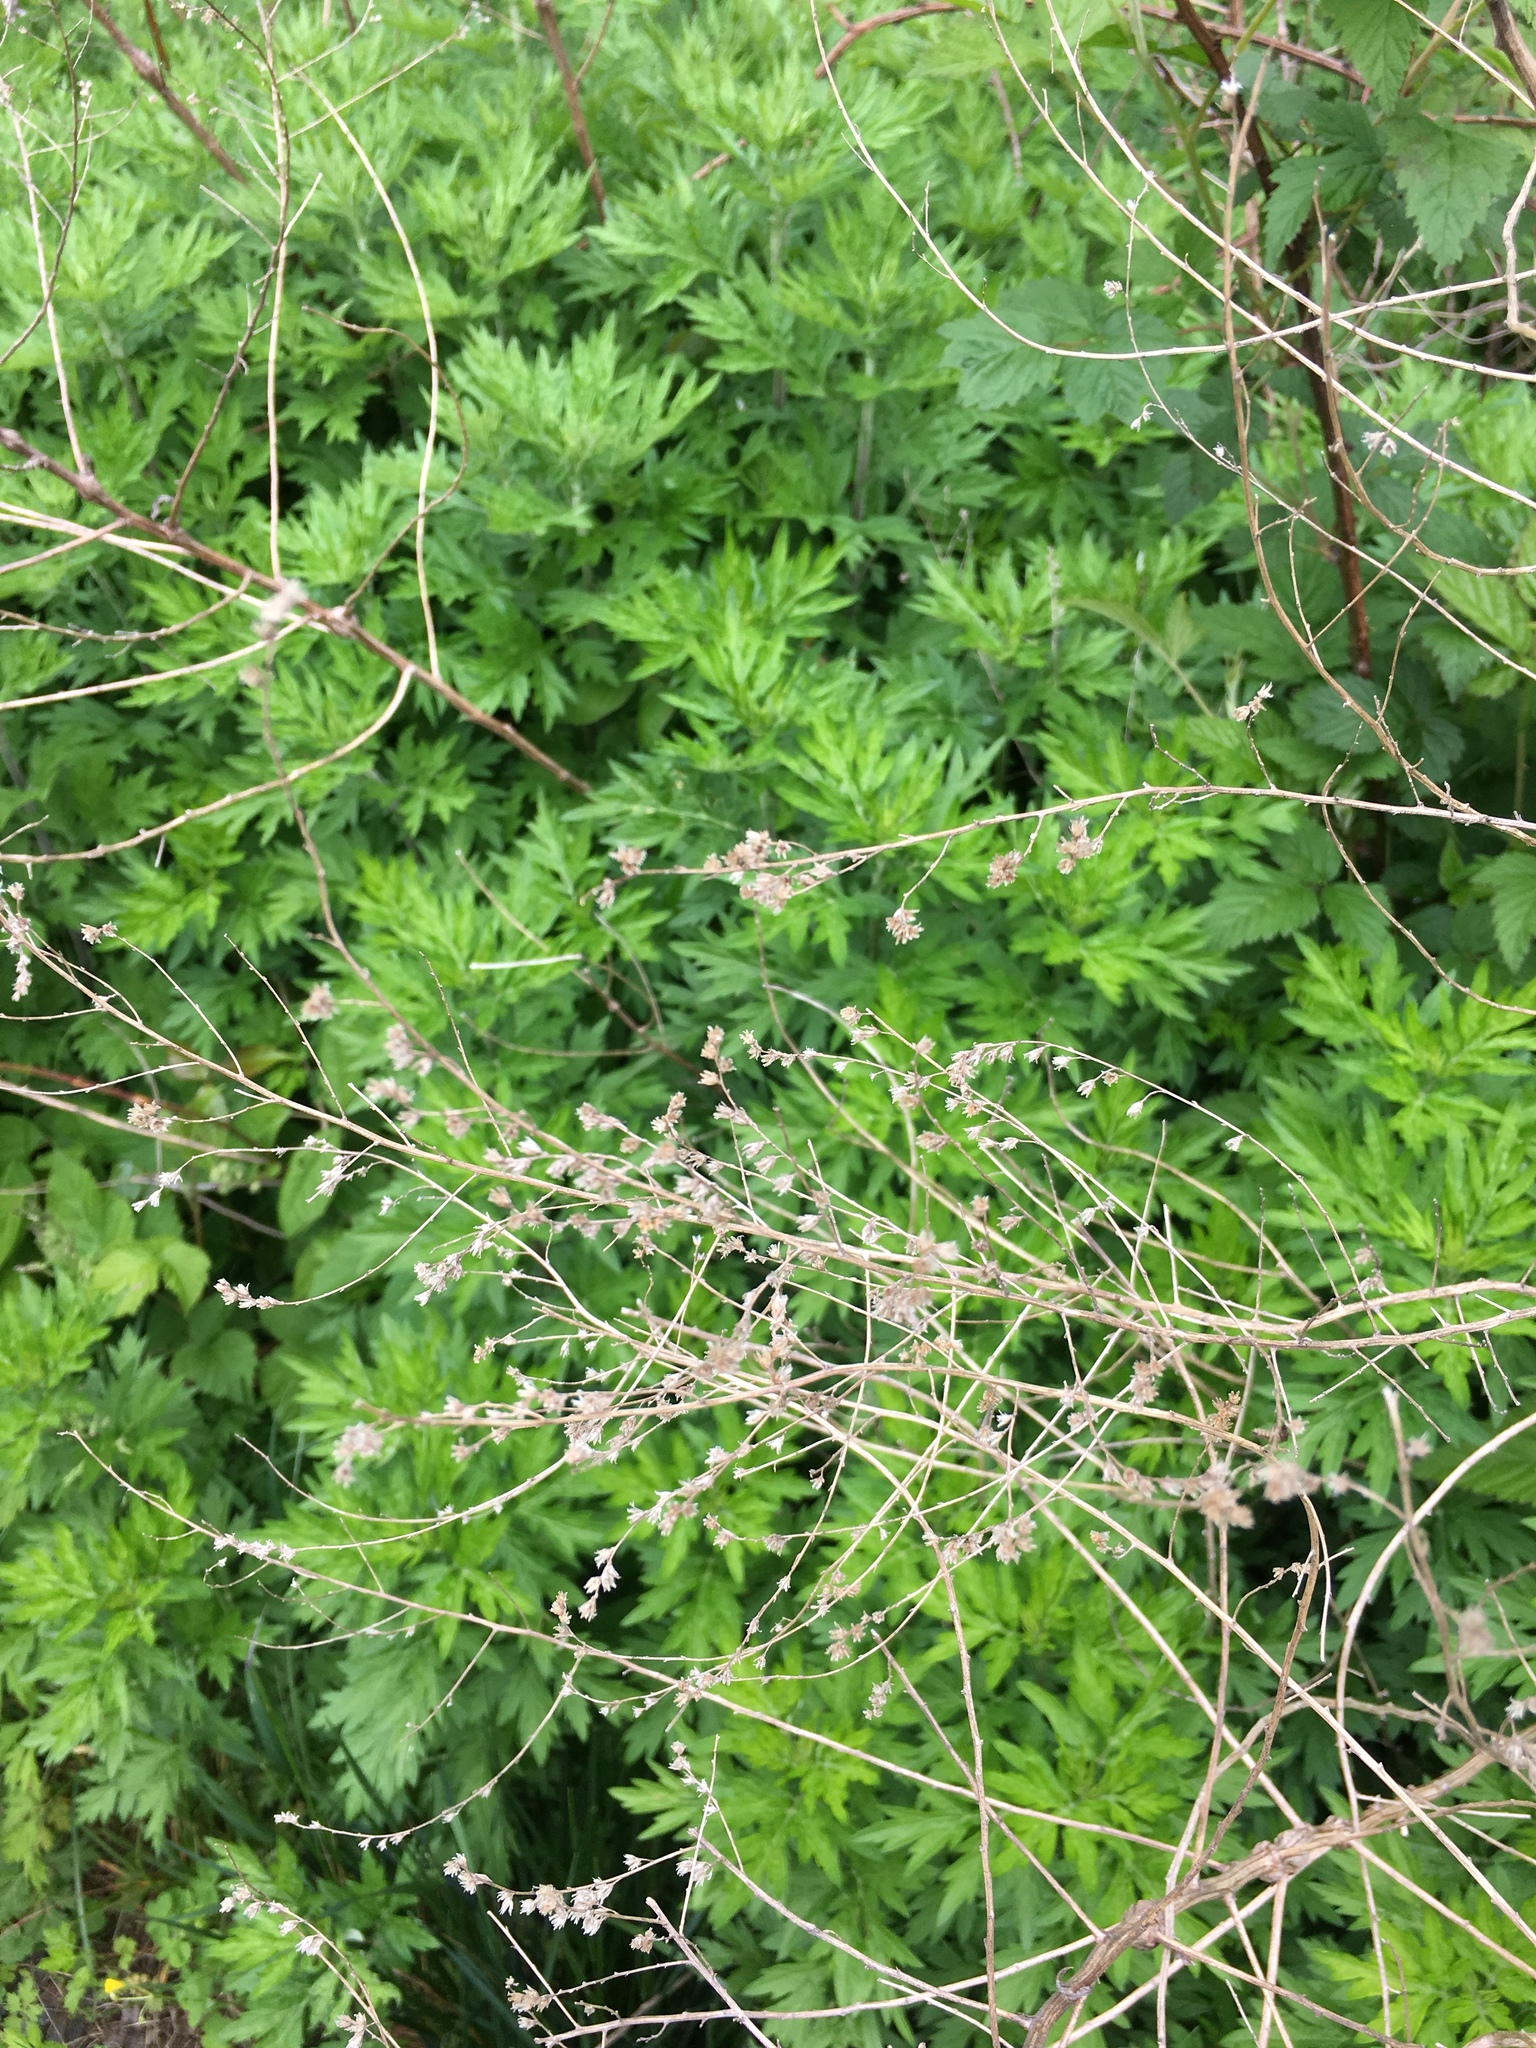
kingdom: Plantae
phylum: Tracheophyta
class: Magnoliopsida
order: Asterales
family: Asteraceae
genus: Artemisia
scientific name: Artemisia vulgaris
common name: Mugwort
